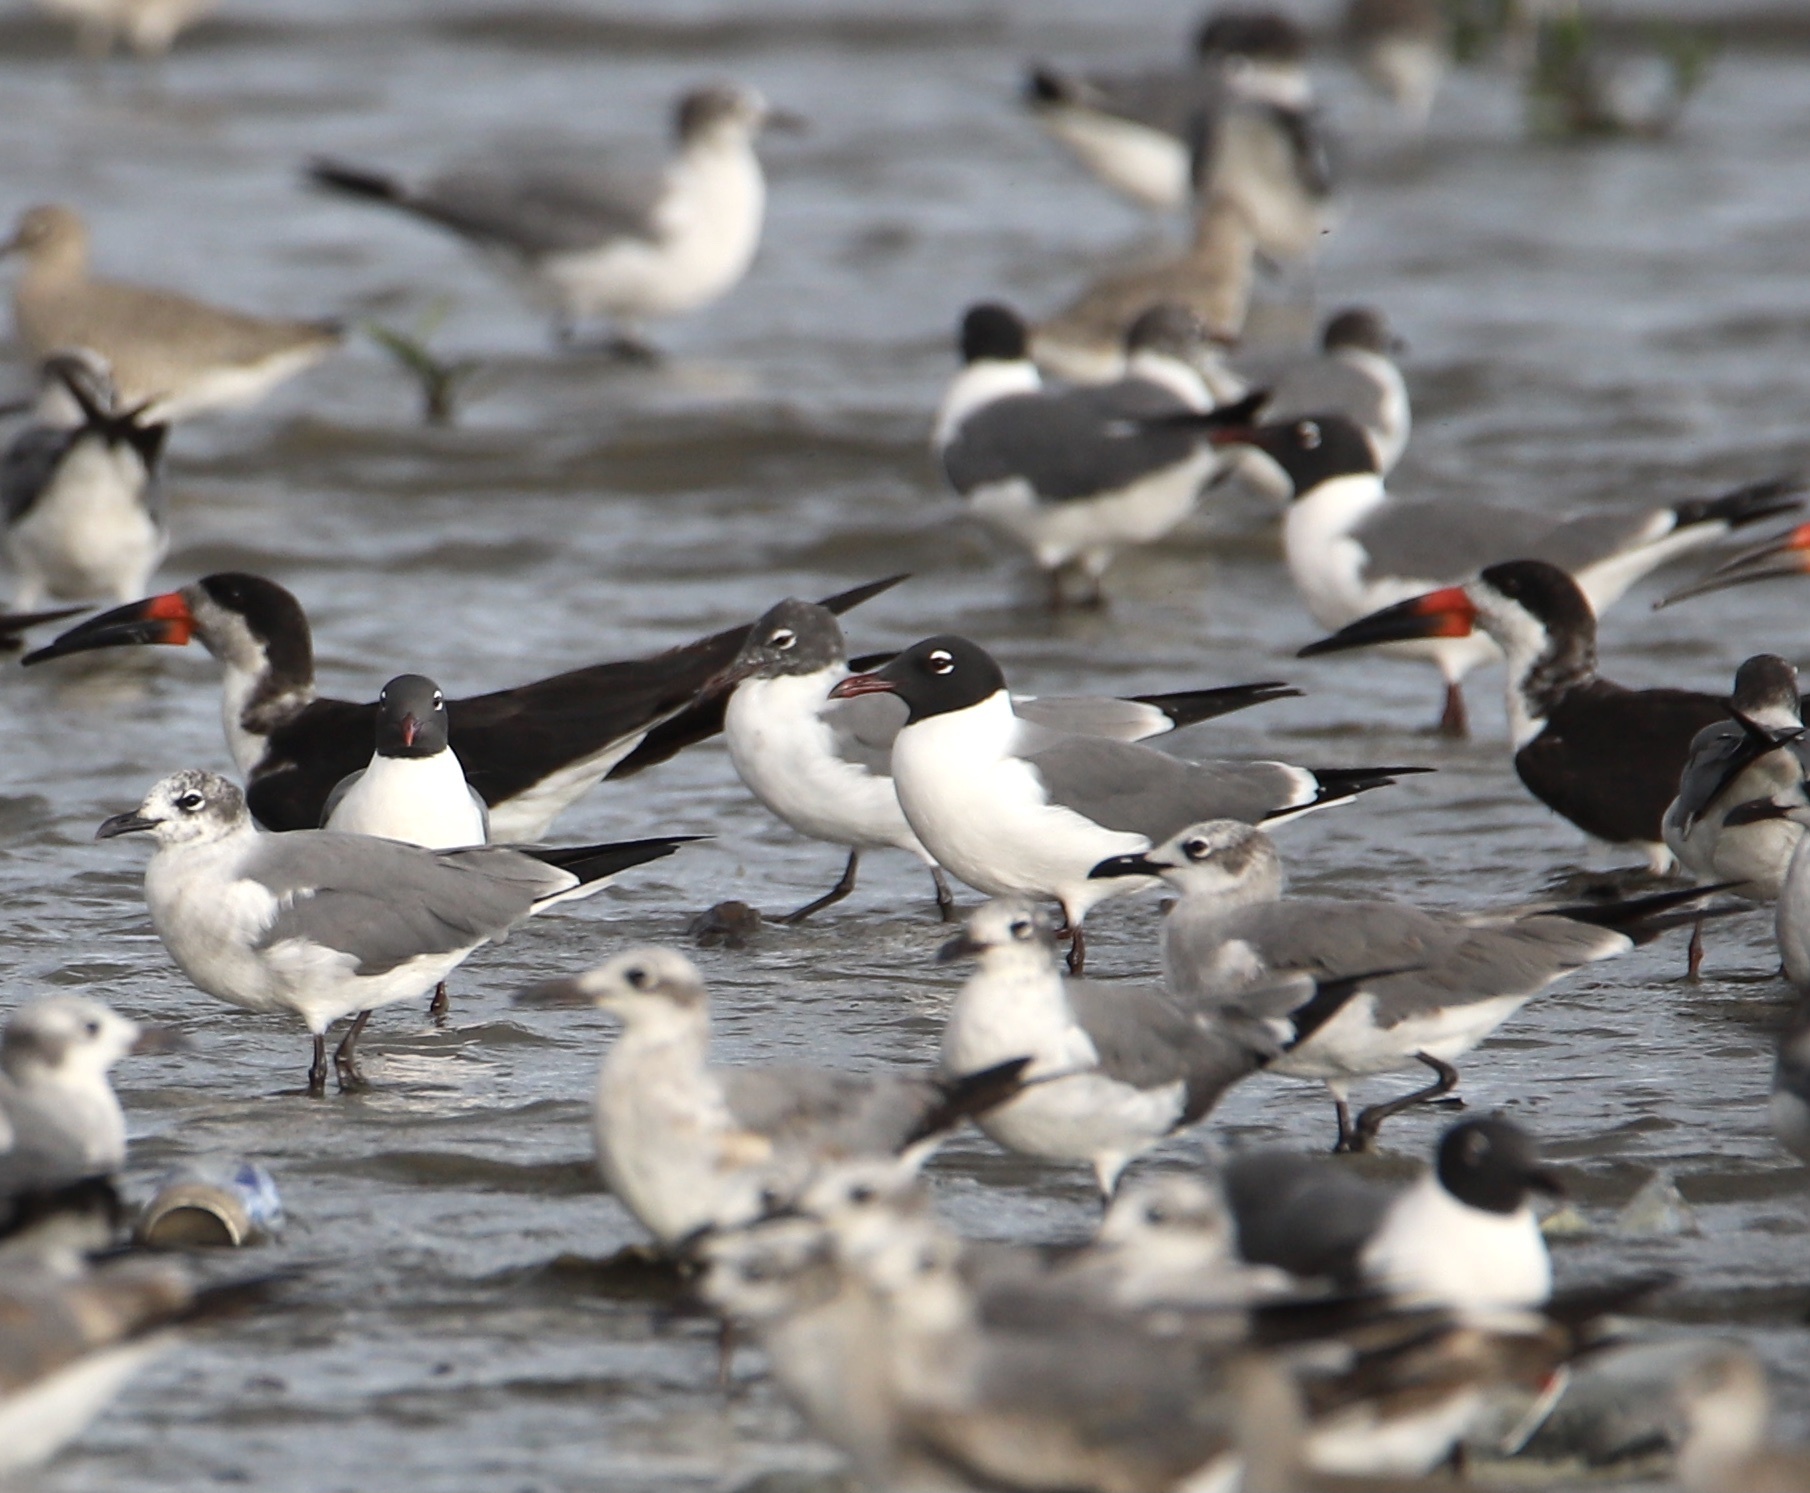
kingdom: Animalia
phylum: Chordata
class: Aves
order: Charadriiformes
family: Laridae
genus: Leucophaeus
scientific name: Leucophaeus atricilla
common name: Laughing gull
